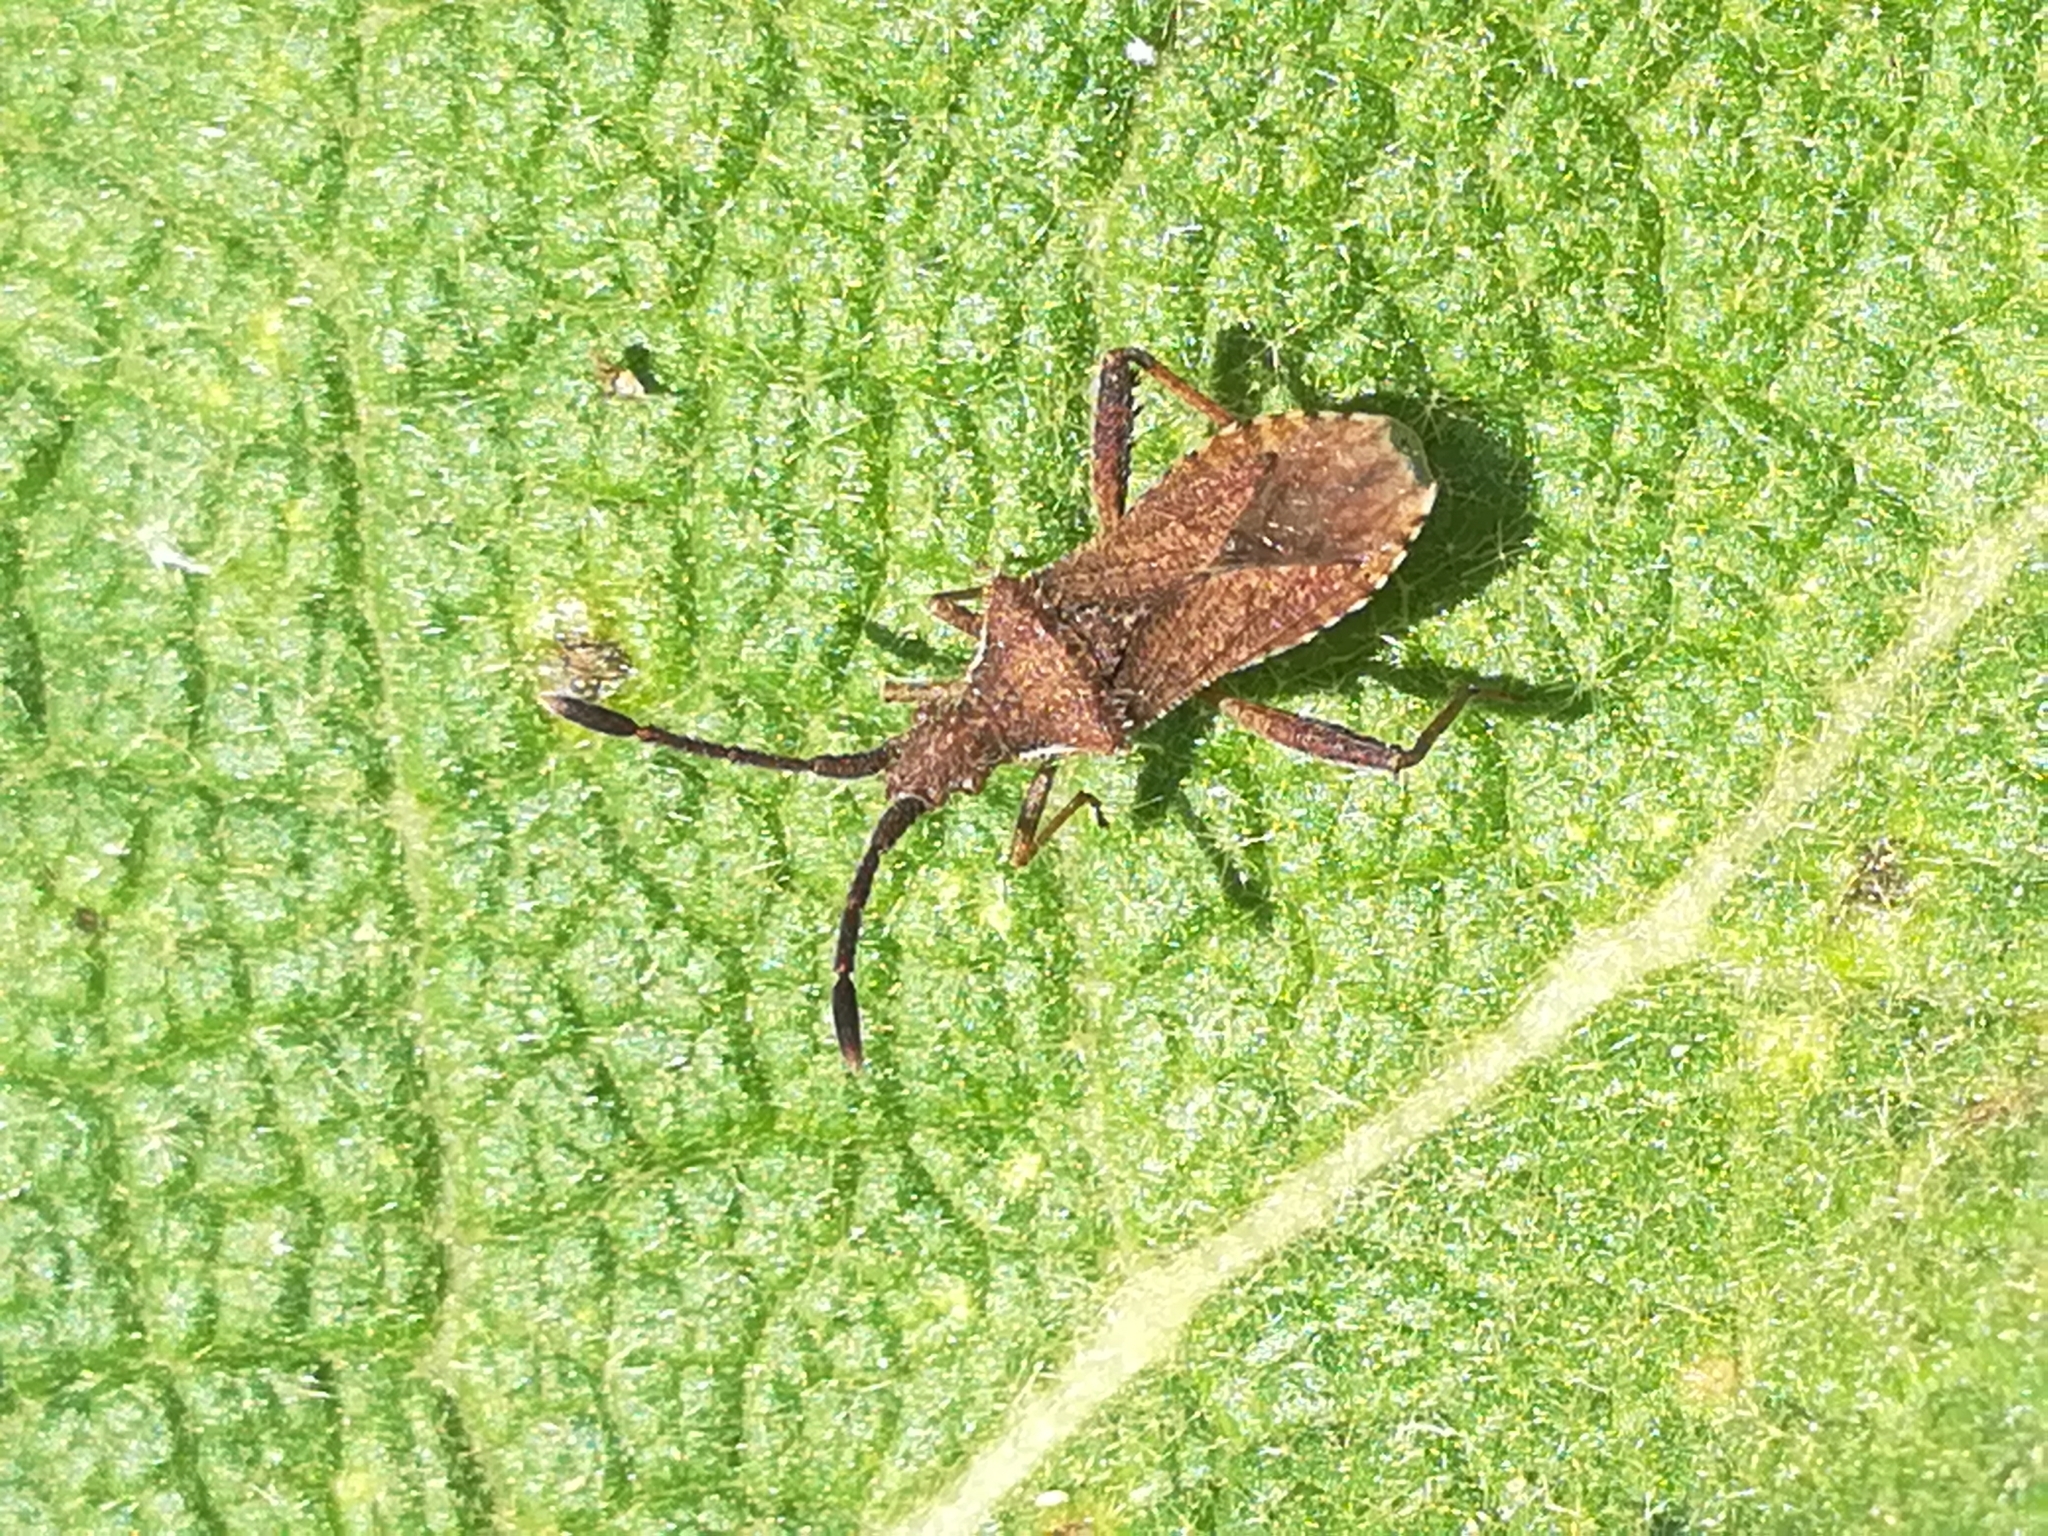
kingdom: Animalia
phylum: Arthropoda
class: Insecta
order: Hemiptera
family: Coreidae
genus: Coriomeris
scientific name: Coriomeris denticulatus
